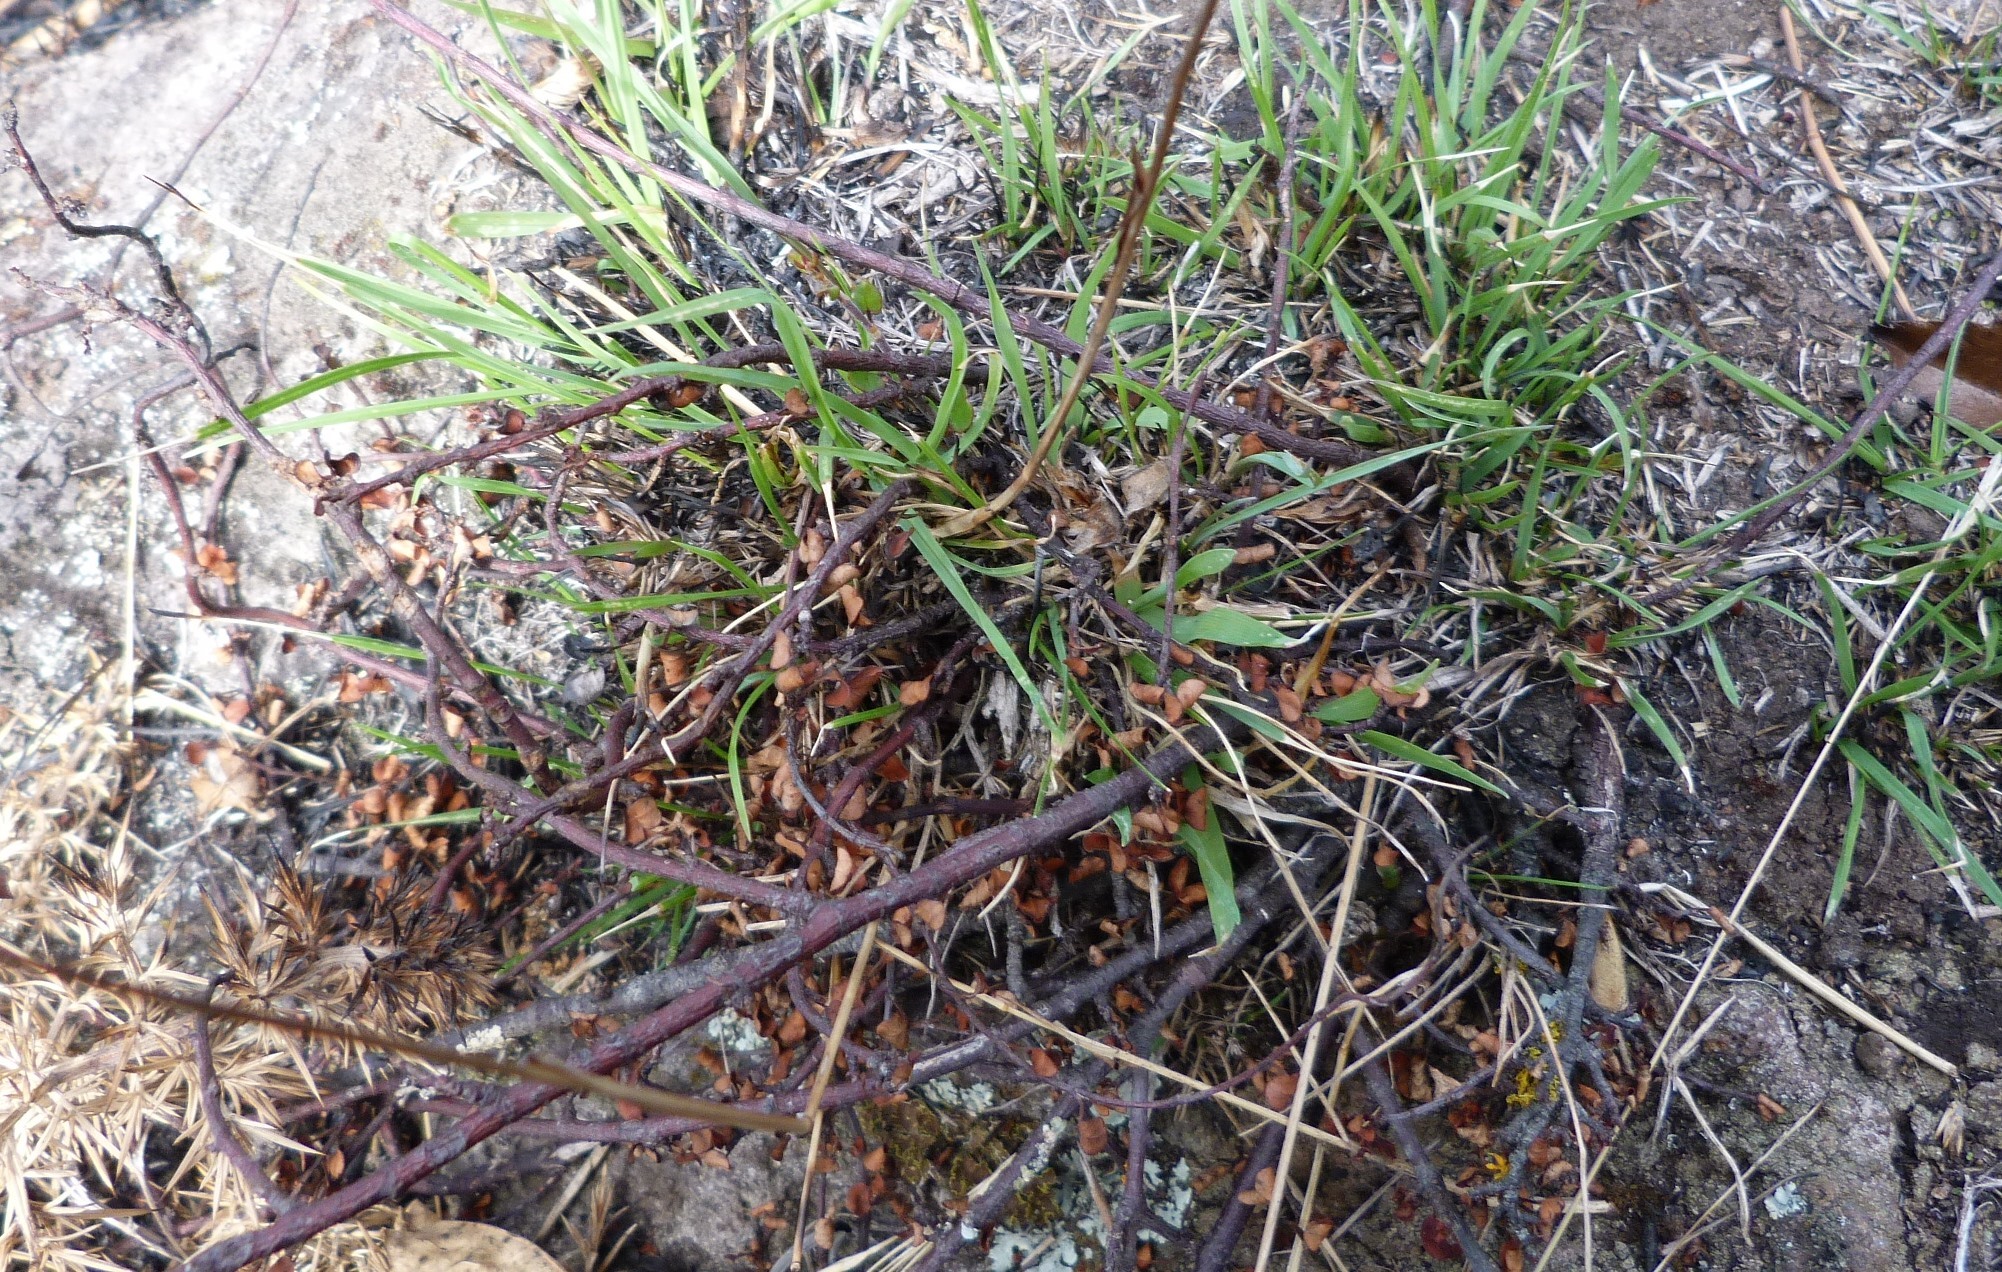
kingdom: Plantae
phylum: Tracheophyta
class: Magnoliopsida
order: Caryophyllales
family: Polygonaceae
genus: Muehlenbeckia
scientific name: Muehlenbeckia complexa
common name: Wireplant
